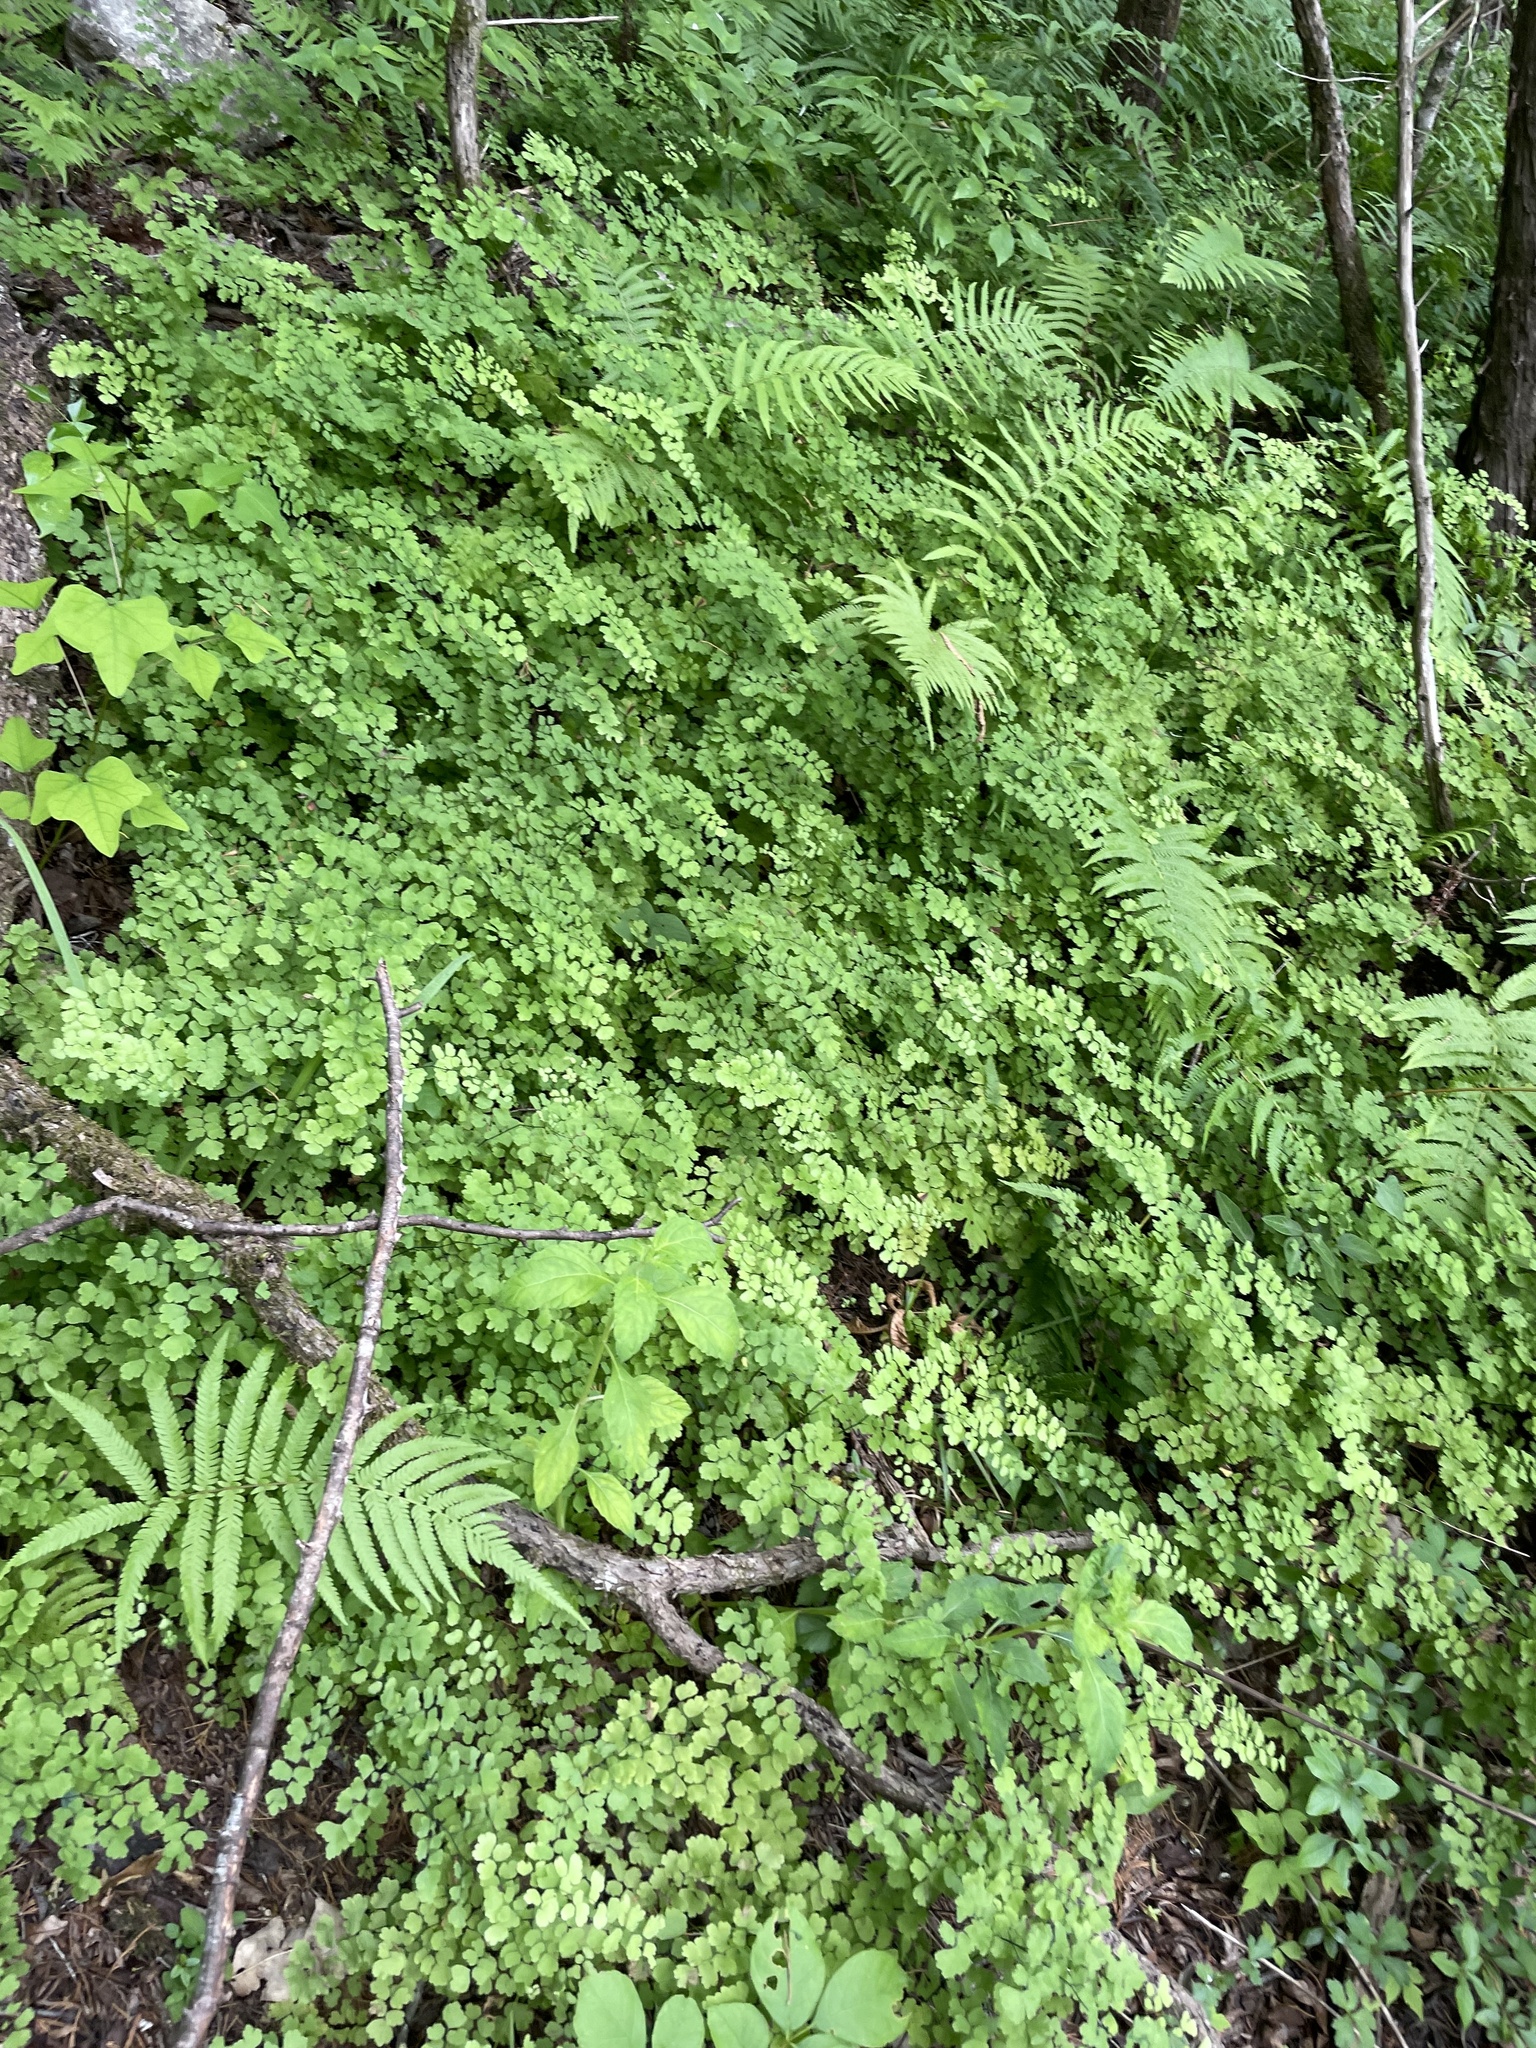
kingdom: Plantae
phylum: Tracheophyta
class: Polypodiopsida
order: Polypodiales
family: Pteridaceae
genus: Adiantum
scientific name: Adiantum capillus-veneris
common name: Maidenhair fern
